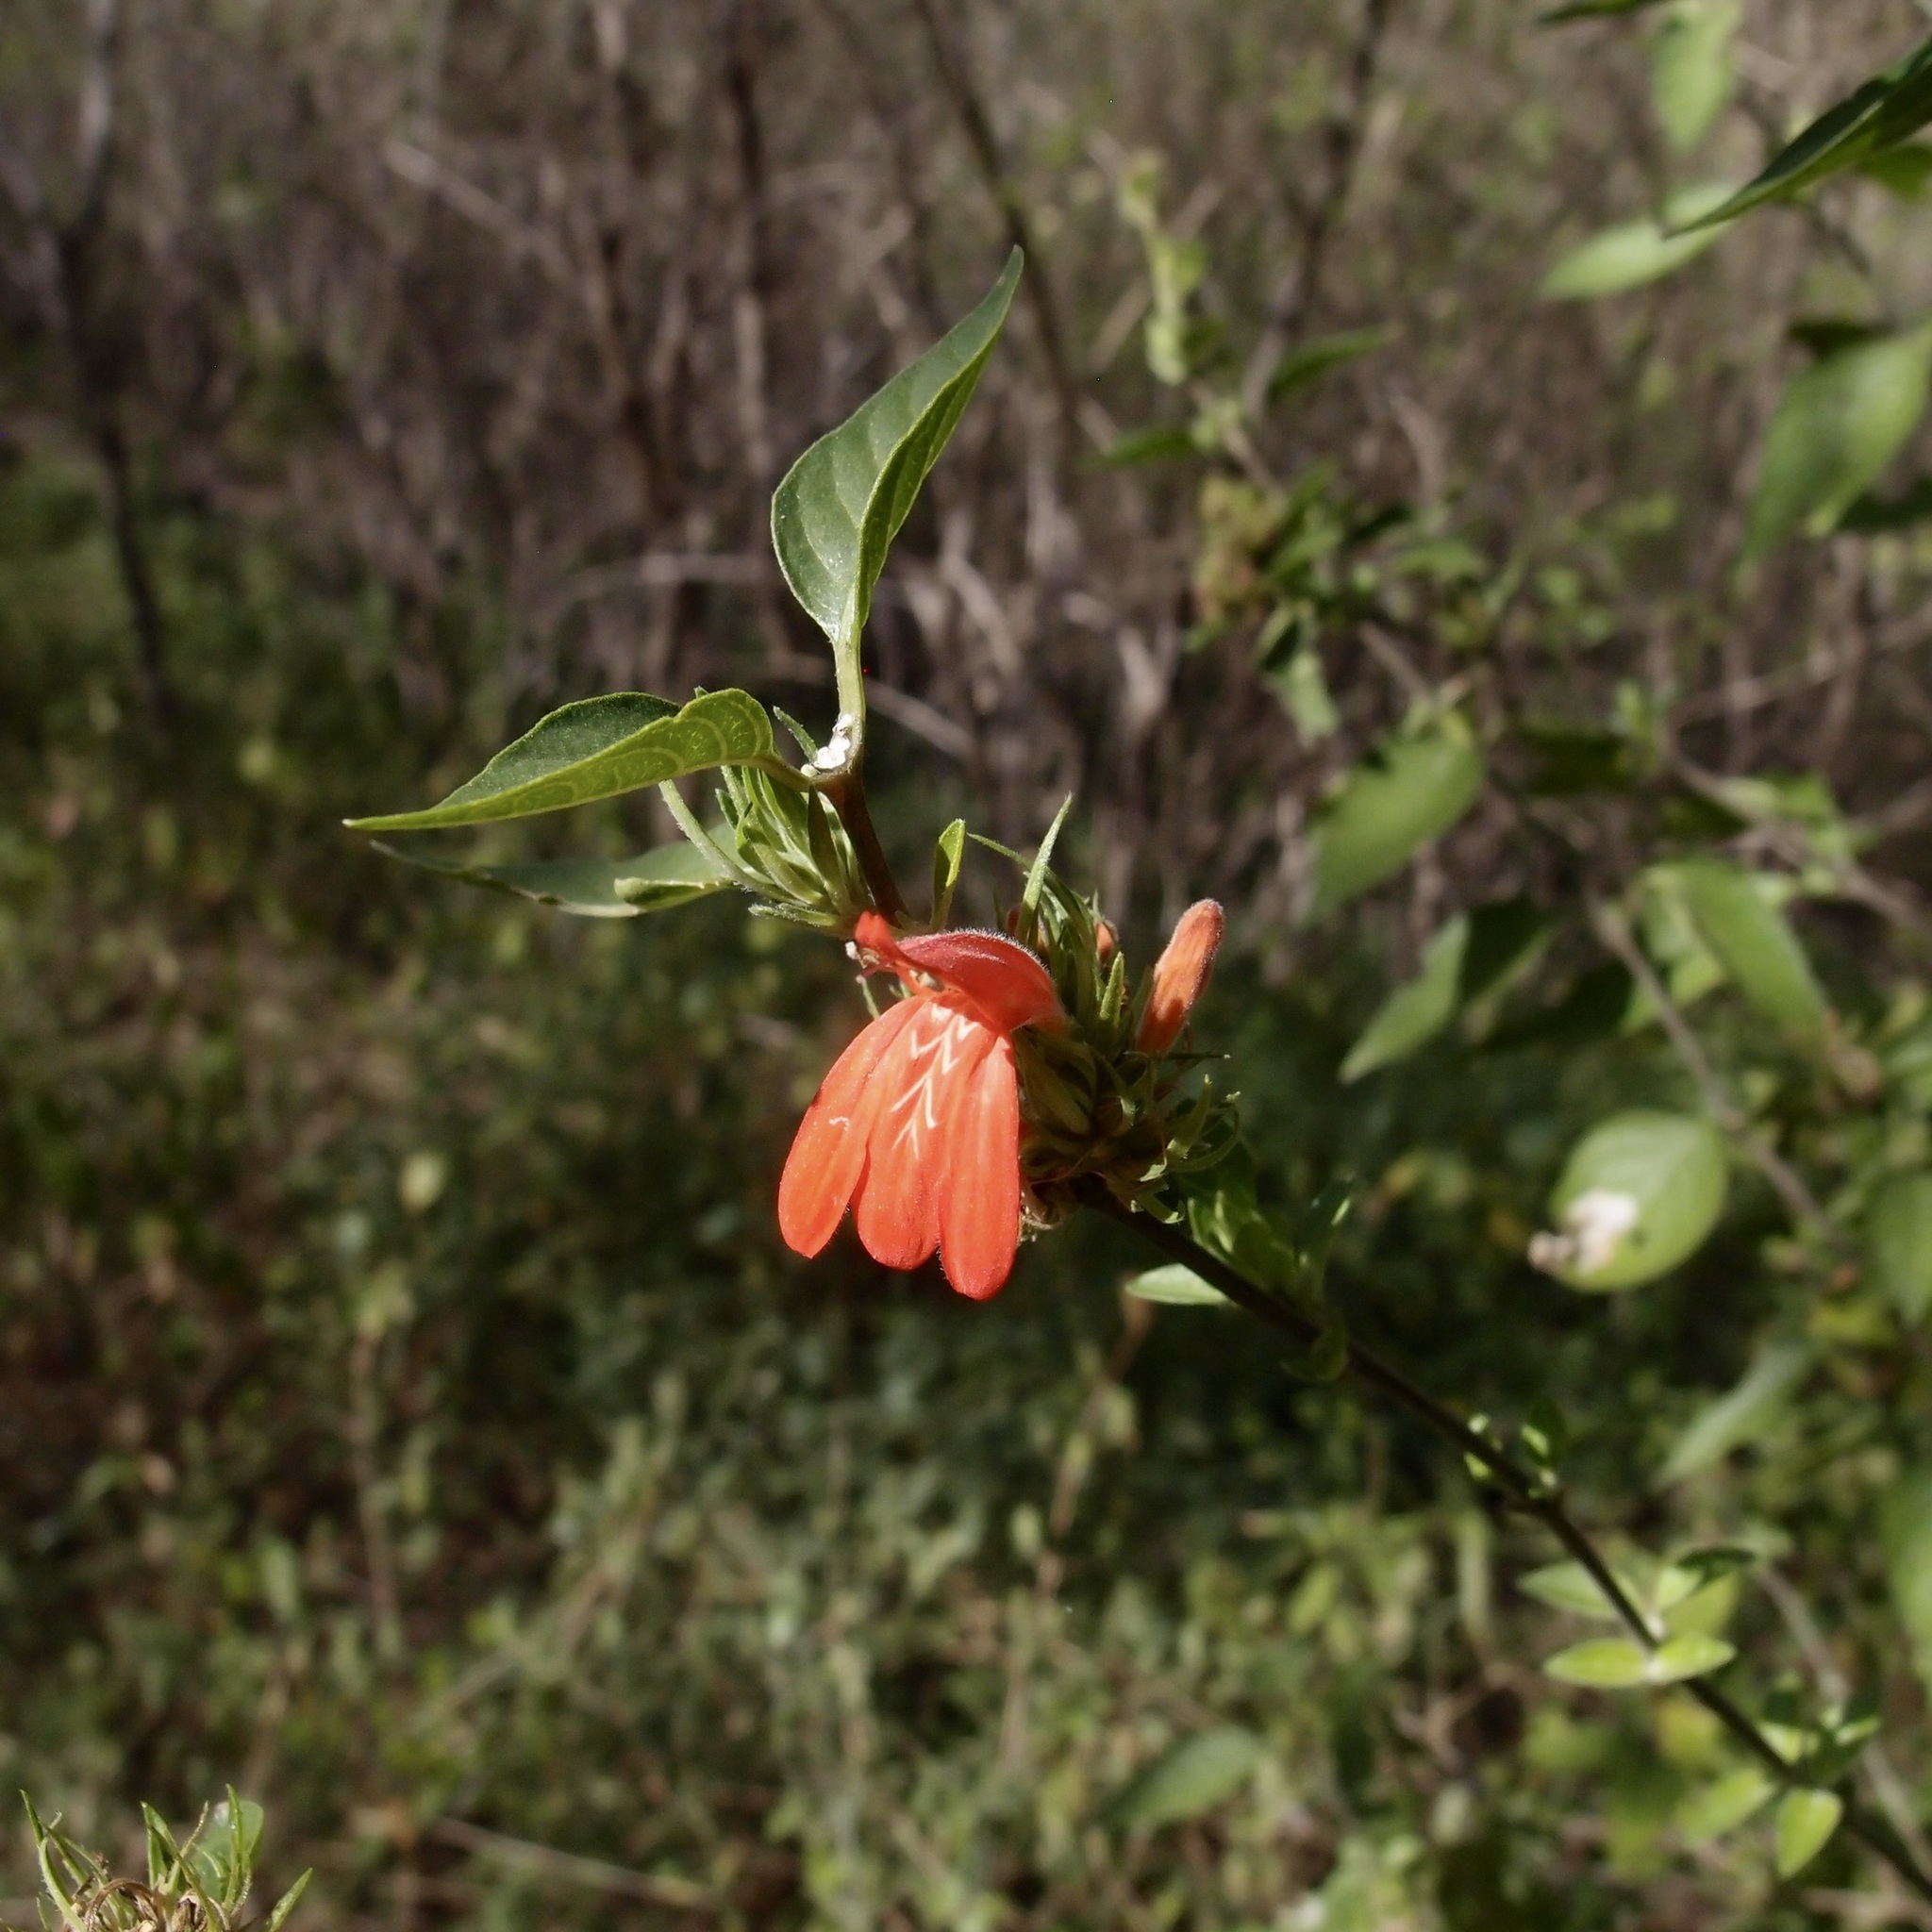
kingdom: Plantae
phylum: Tracheophyta
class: Magnoliopsida
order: Lamiales
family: Acanthaceae
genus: Dianthera
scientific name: Dianthera candicans
